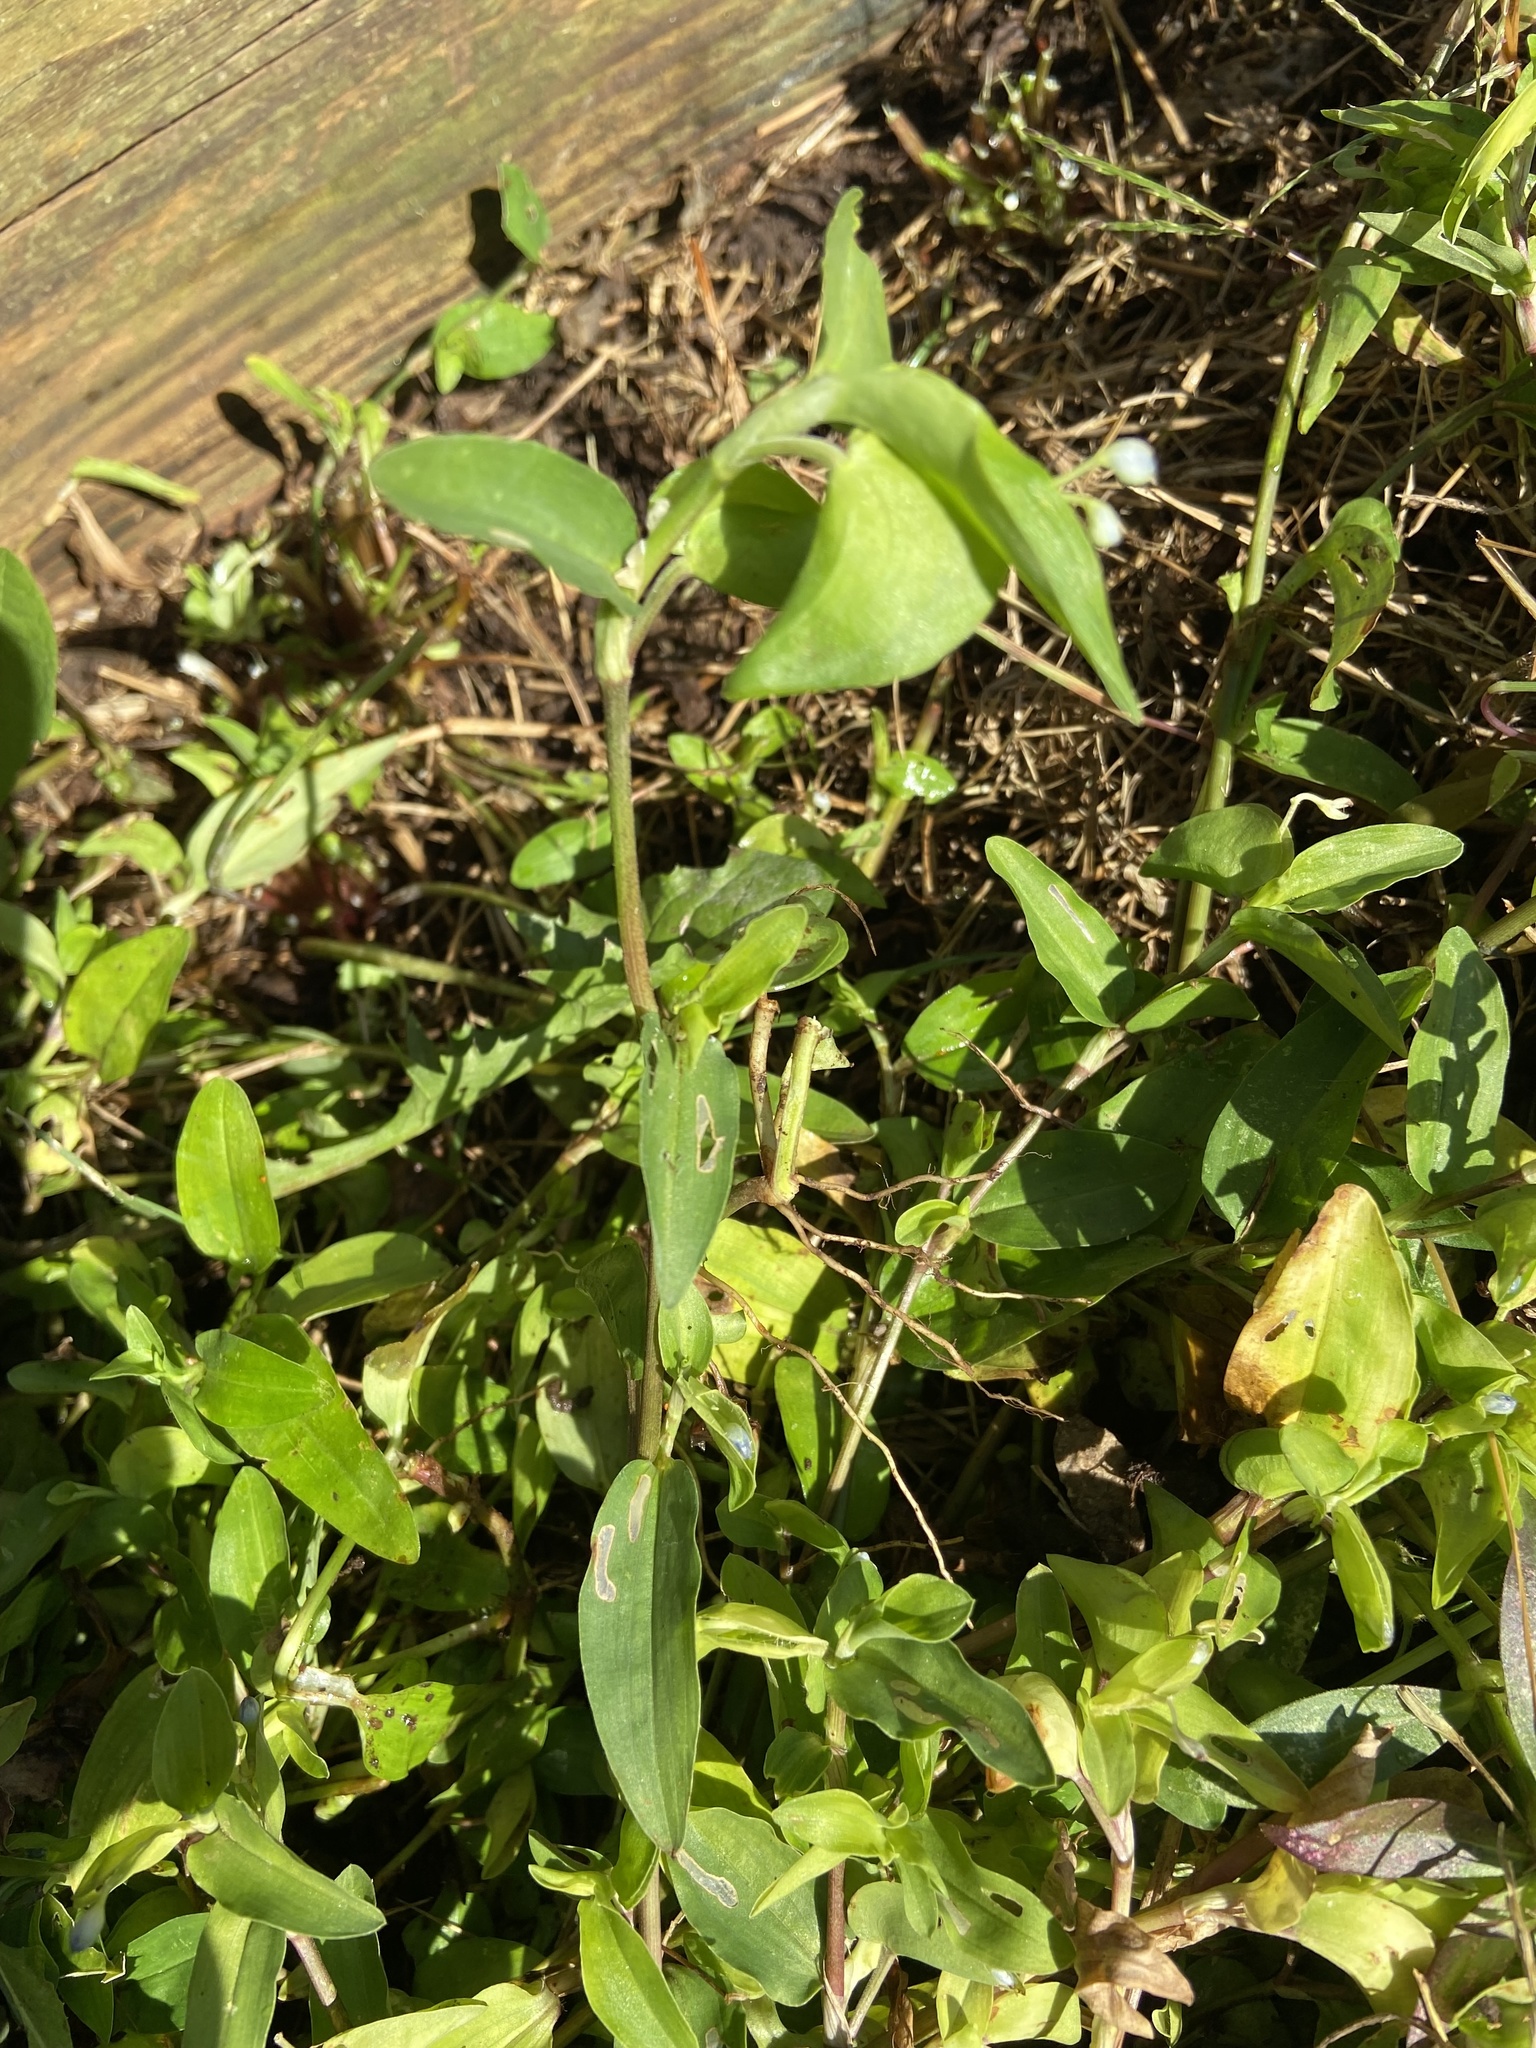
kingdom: Plantae
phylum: Tracheophyta
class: Liliopsida
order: Commelinales
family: Commelinaceae
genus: Commelina
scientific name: Commelina diffusa
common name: Climbing dayflower
